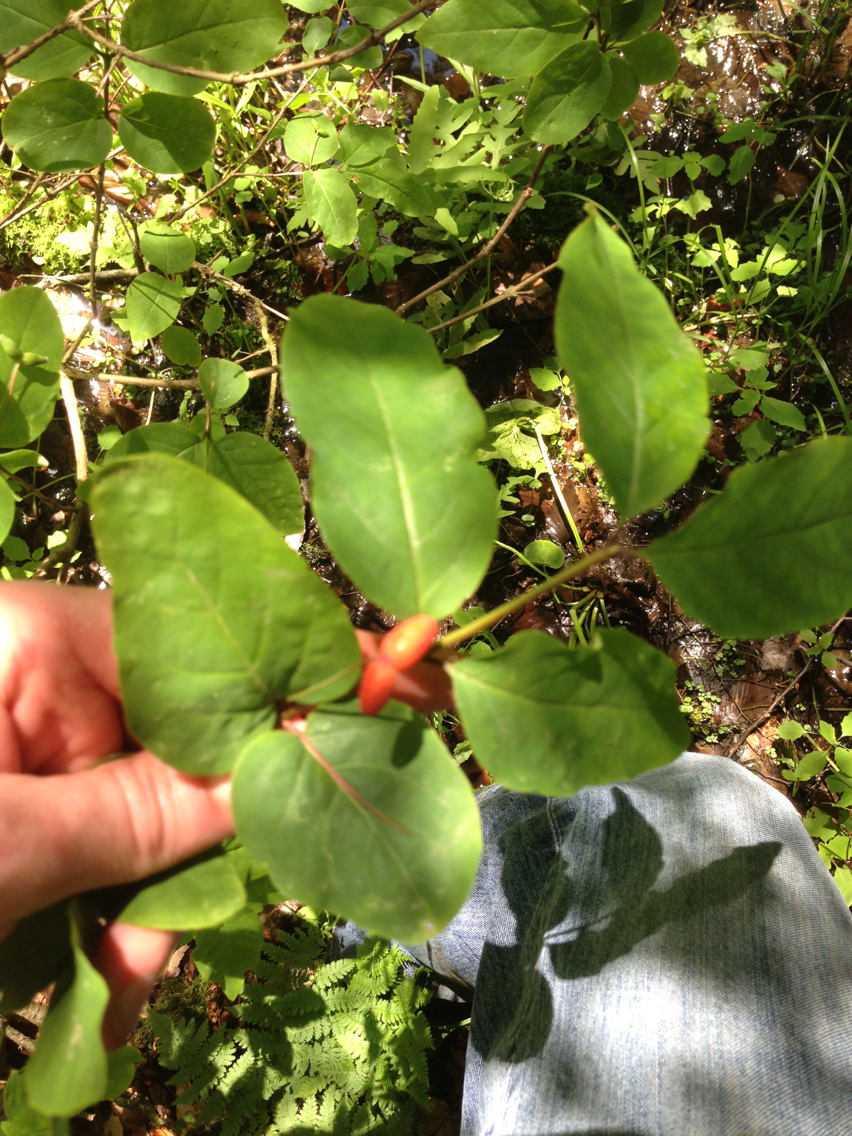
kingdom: Plantae
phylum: Tracheophyta
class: Magnoliopsida
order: Dipsacales
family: Caprifoliaceae
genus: Lonicera
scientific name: Lonicera canadensis
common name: American fly-honeysuckle
